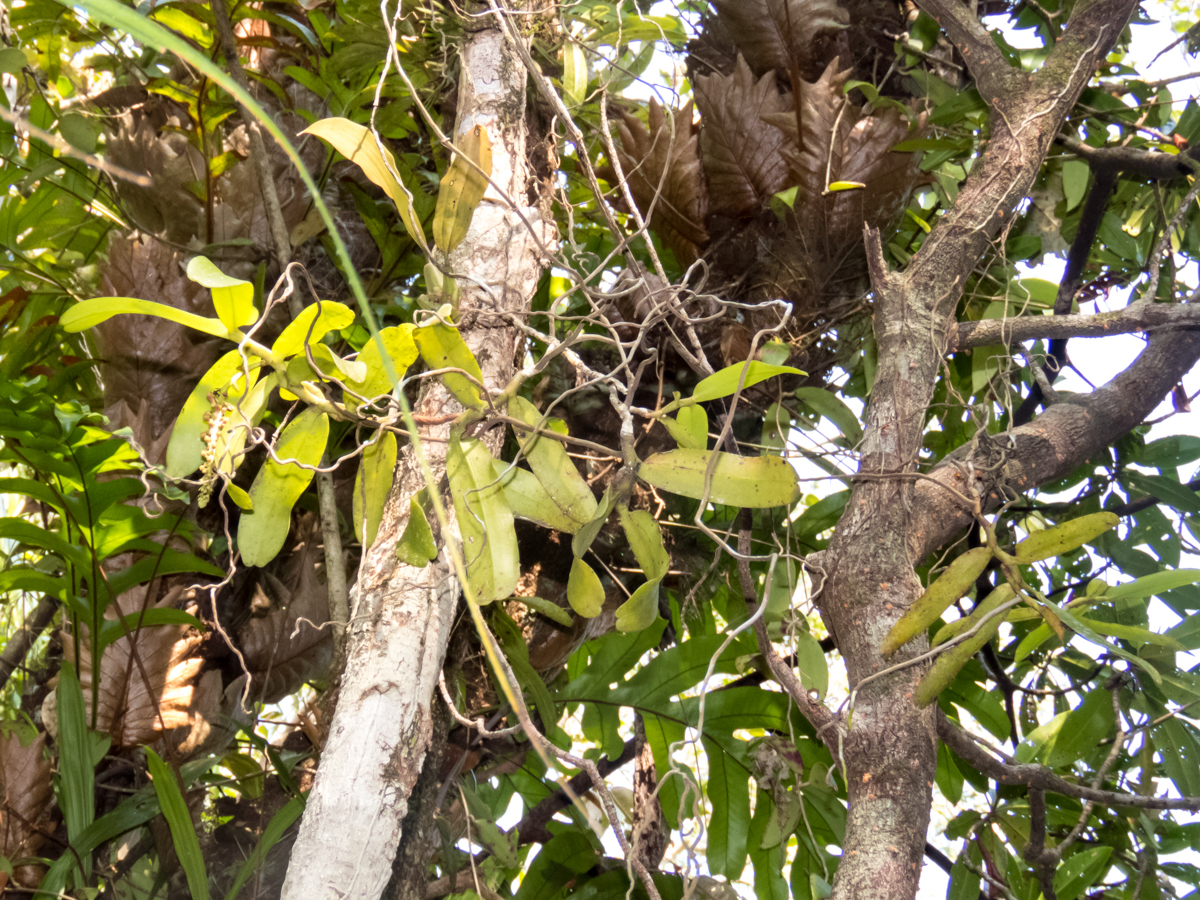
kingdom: Plantae
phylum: Tracheophyta
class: Liliopsida
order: Asparagales
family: Orchidaceae
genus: Robiquetia
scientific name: Robiquetia spathulata
